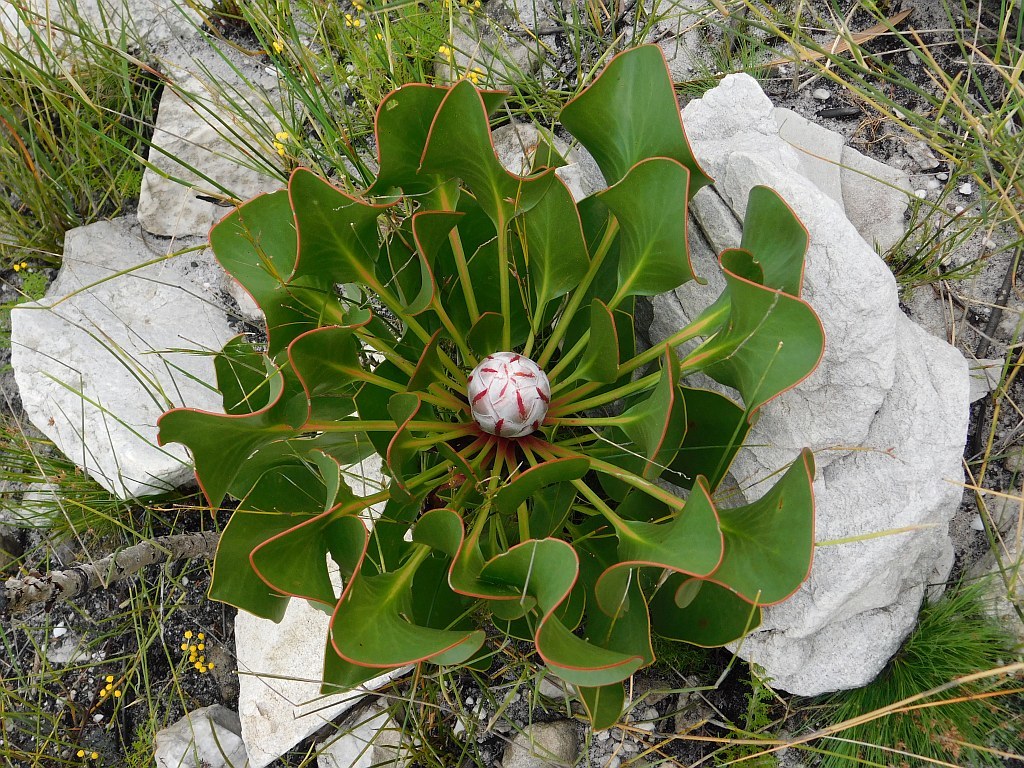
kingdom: Plantae
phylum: Tracheophyta
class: Magnoliopsida
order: Proteales
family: Proteaceae
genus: Protea
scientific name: Protea cynaroides
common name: King protea
